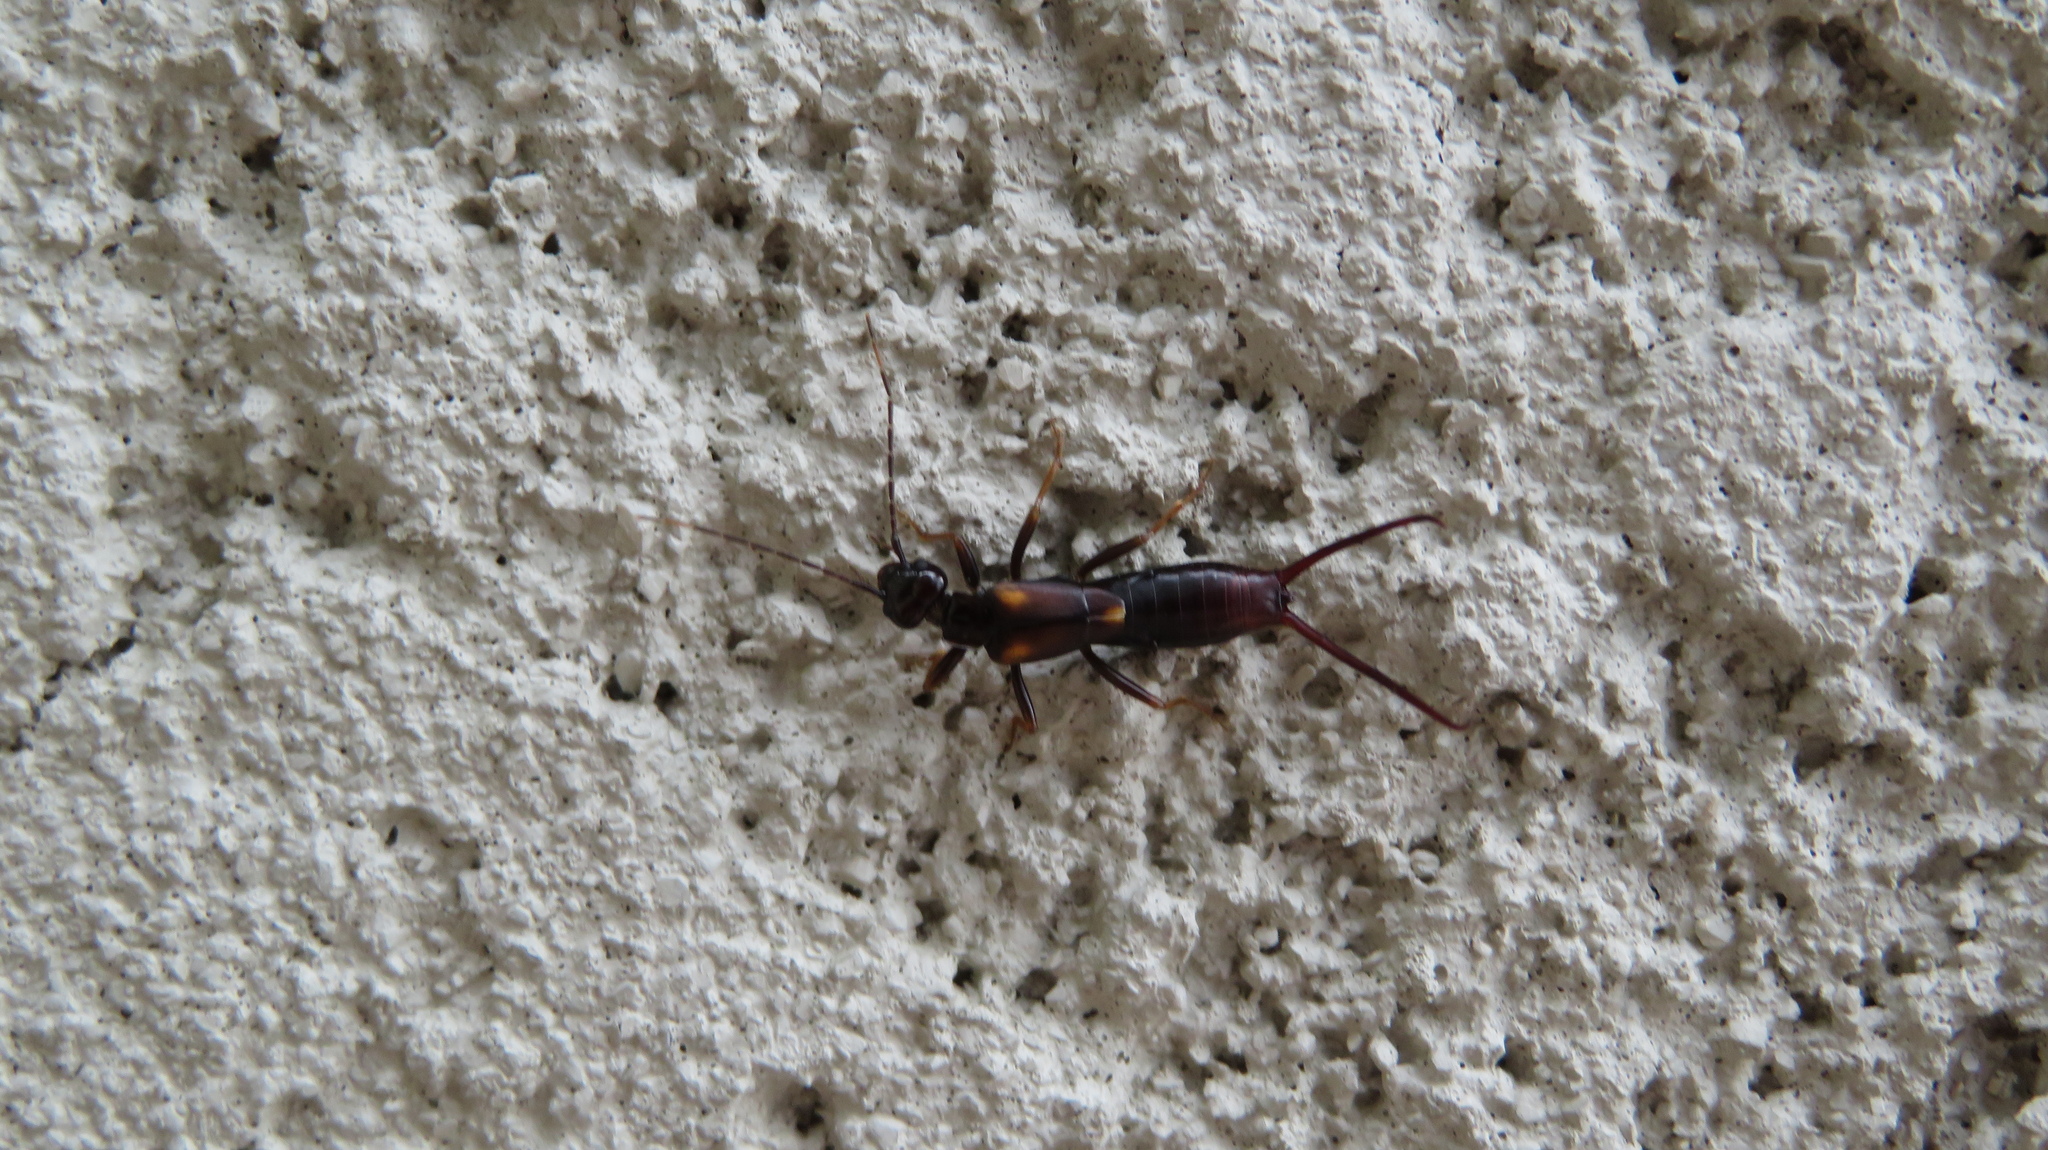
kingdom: Animalia
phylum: Arthropoda
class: Insecta
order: Dermaptera
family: Forficulidae
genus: Eparchus
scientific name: Eparchus yezoensis
